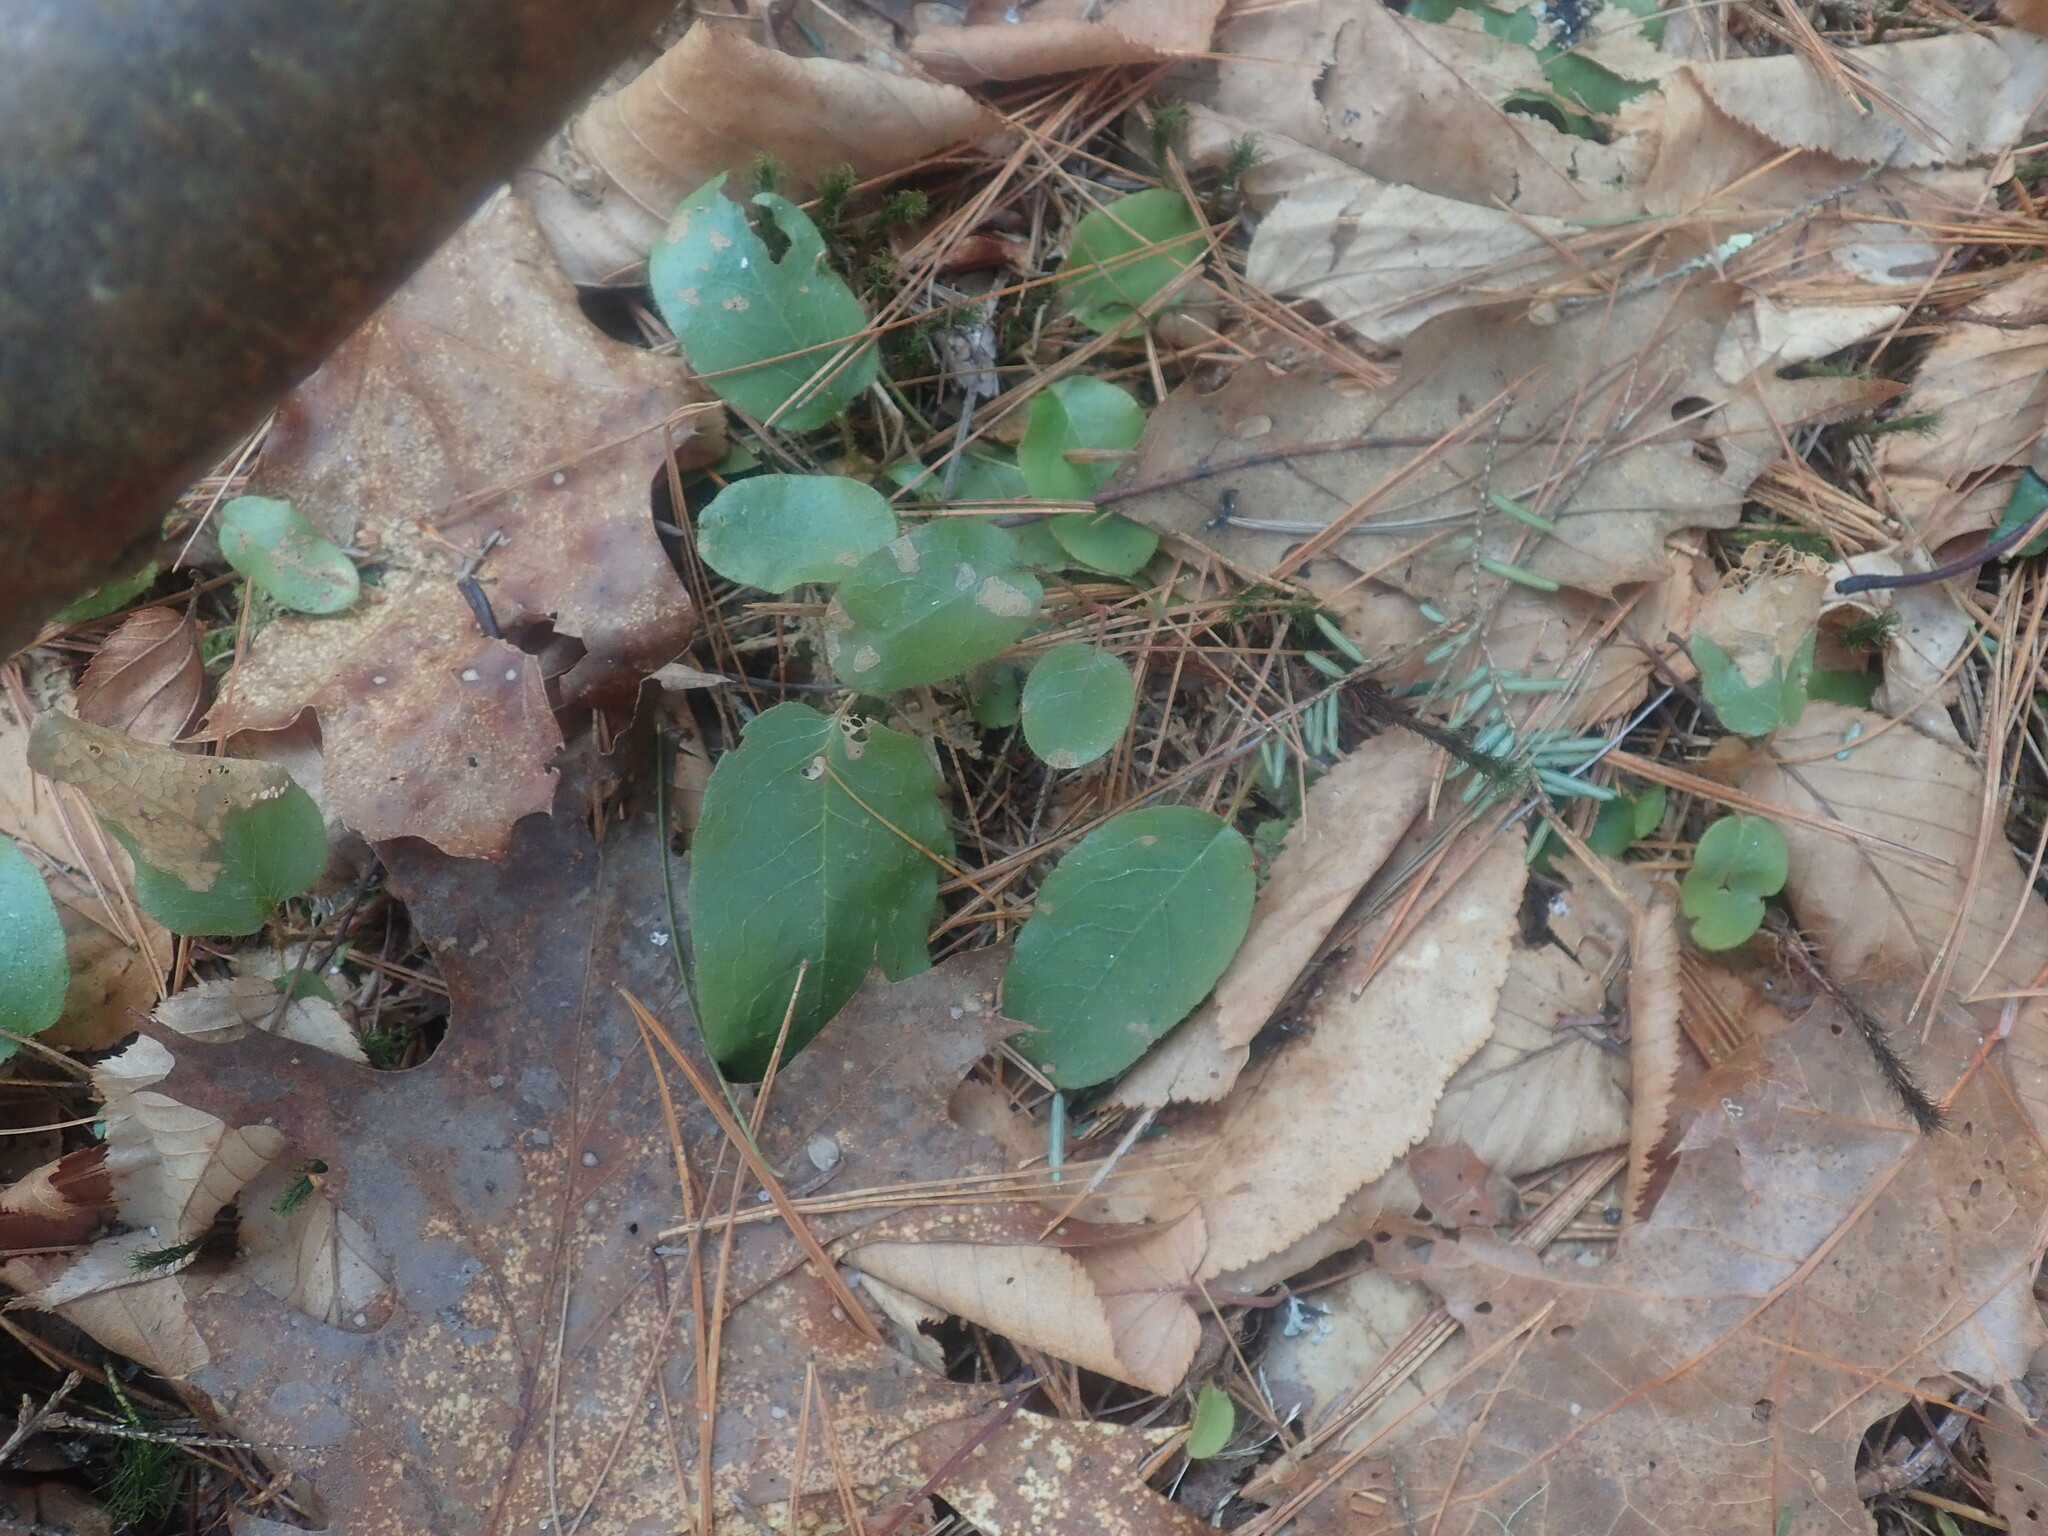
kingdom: Plantae
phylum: Tracheophyta
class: Magnoliopsida
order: Ericales
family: Ericaceae
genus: Epigaea
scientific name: Epigaea repens
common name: Gravelroot
